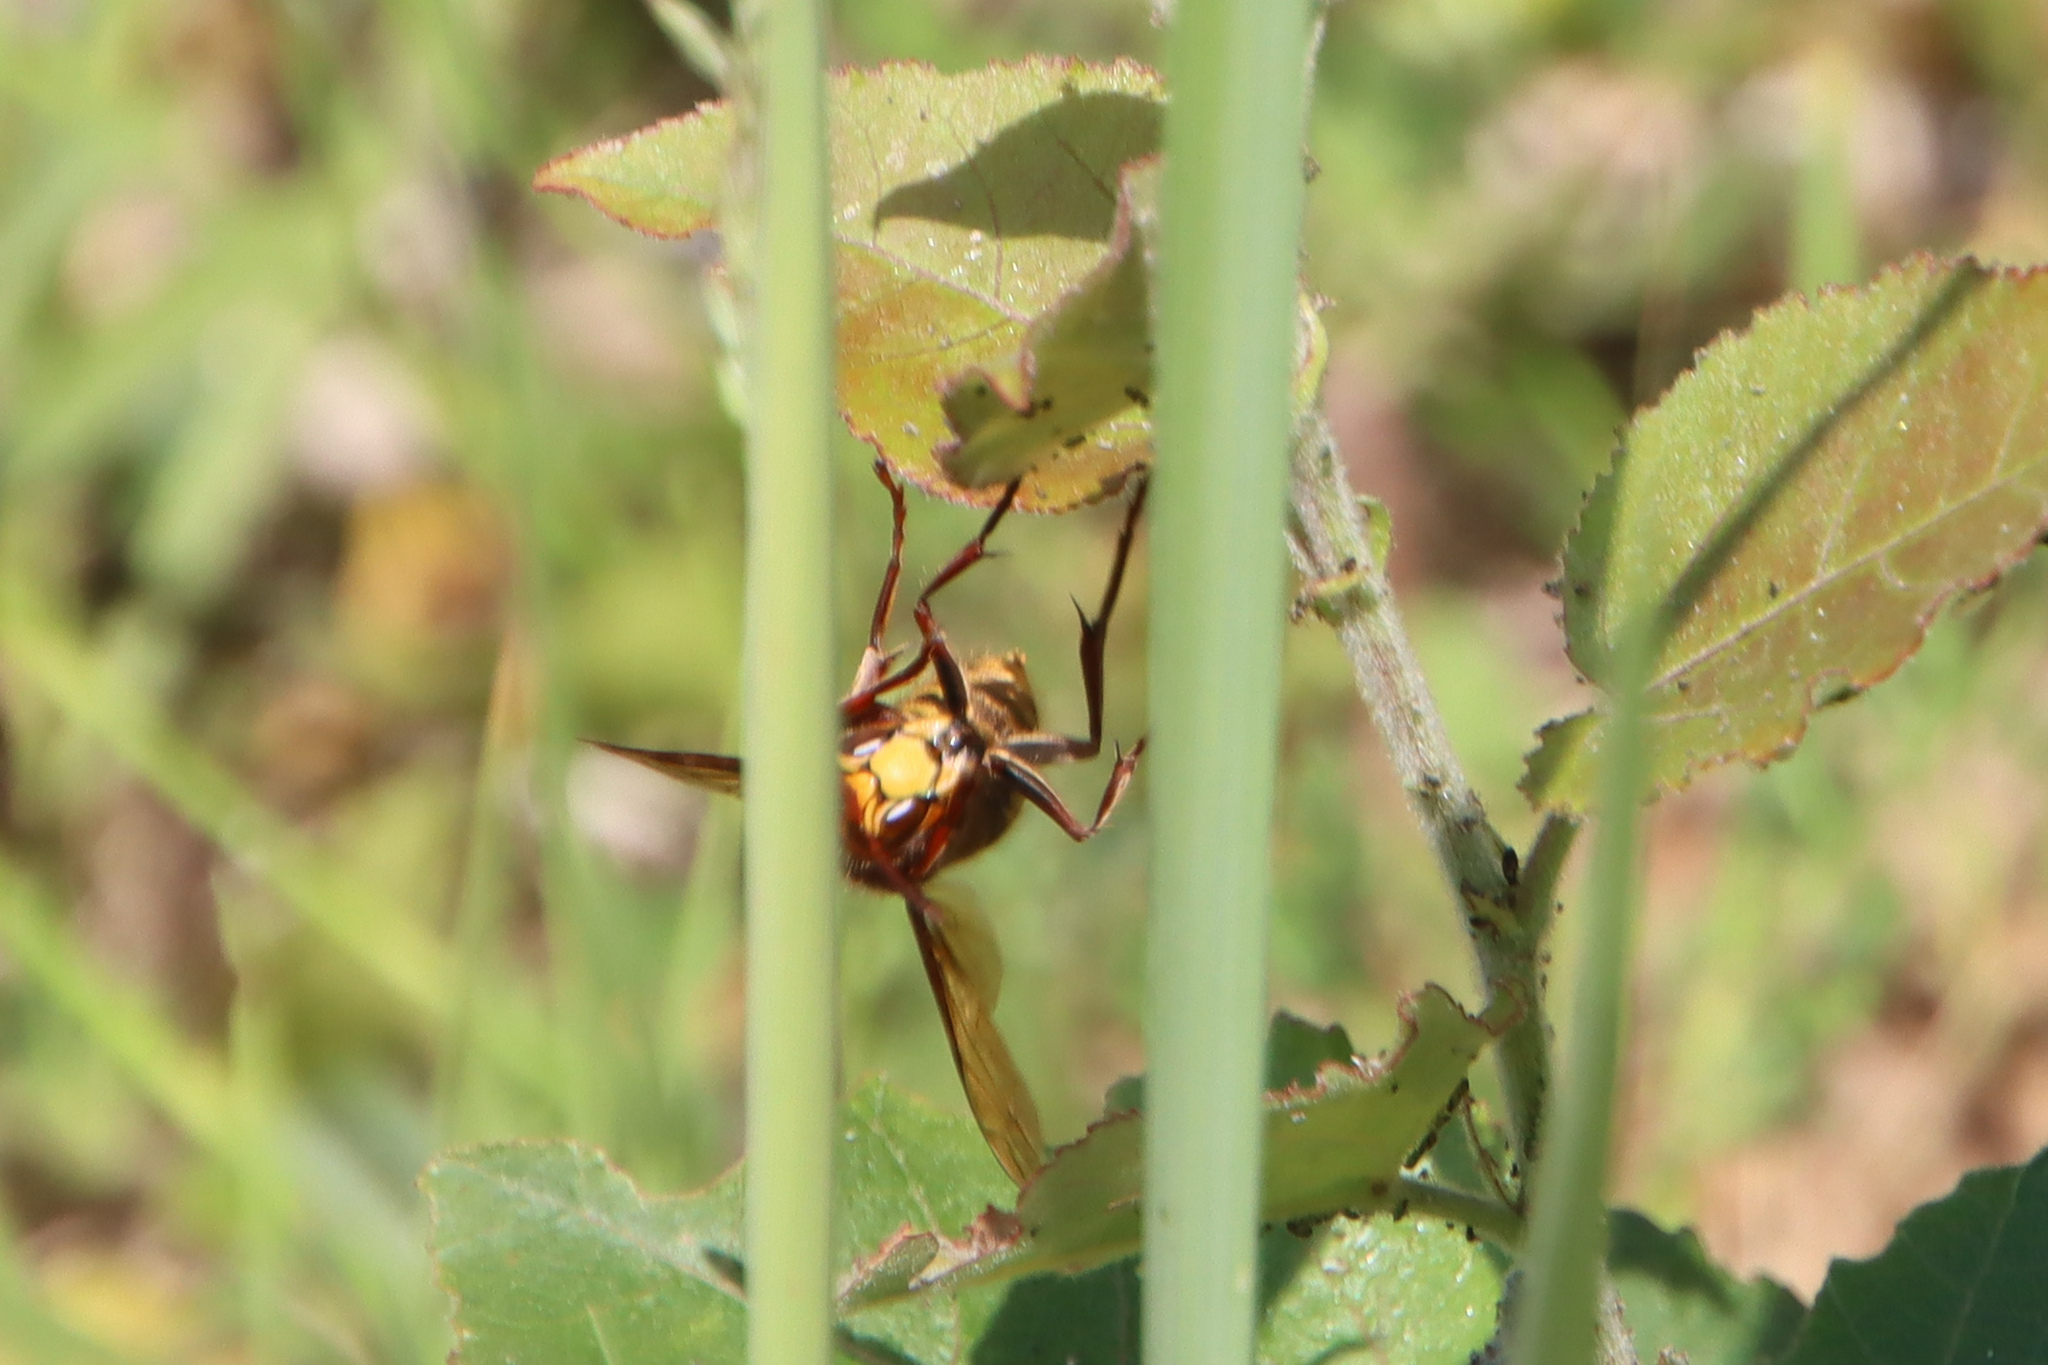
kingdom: Animalia
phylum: Arthropoda
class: Insecta
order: Hymenoptera
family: Vespidae
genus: Vespa
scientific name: Vespa crabro
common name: Hornet
